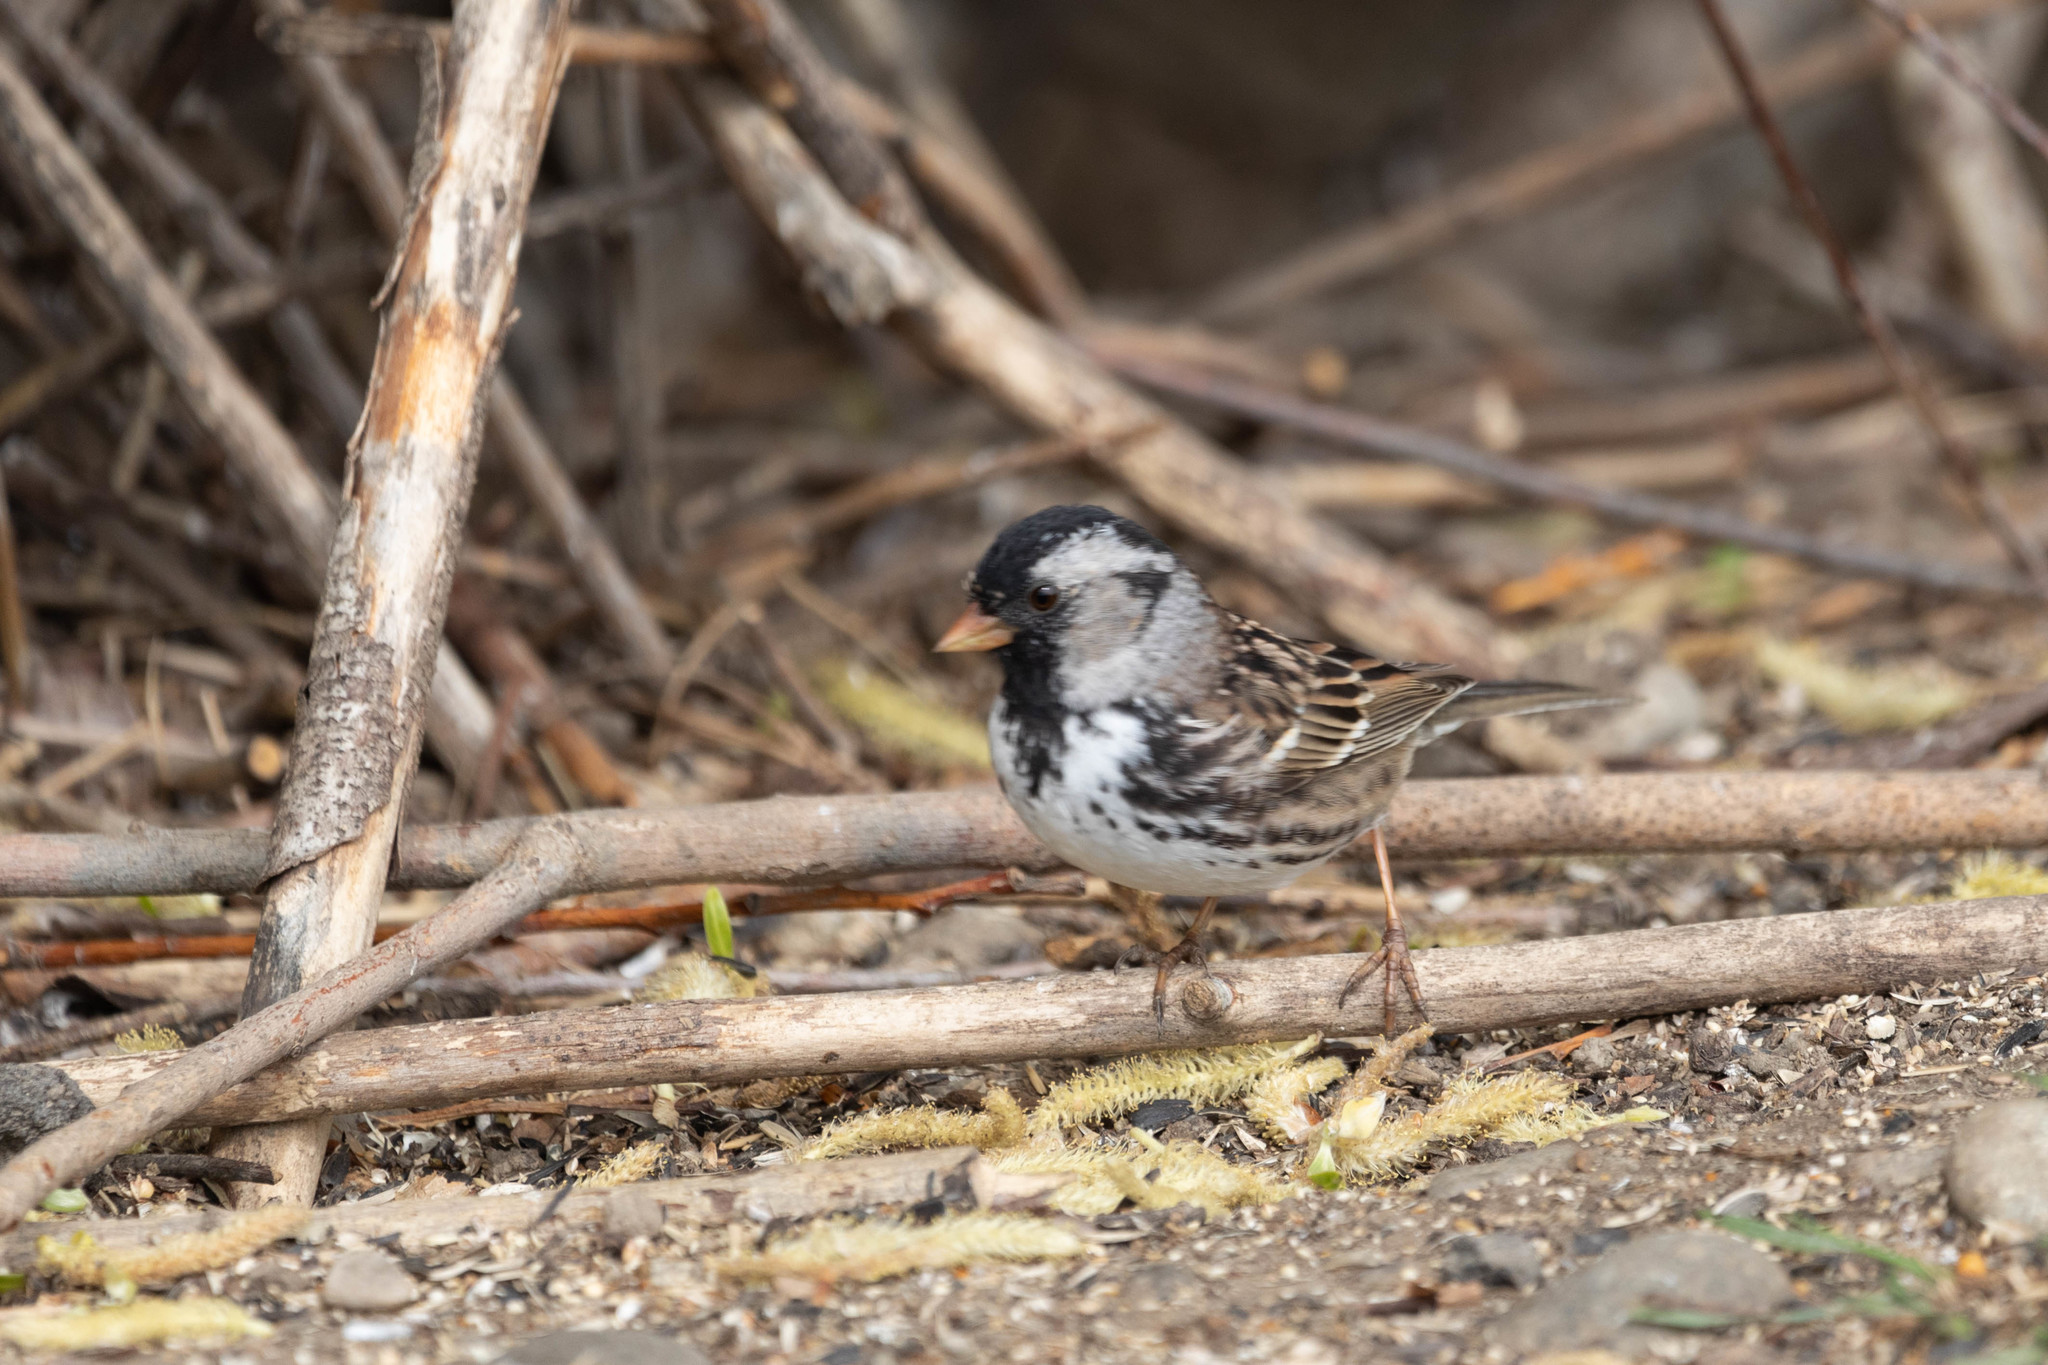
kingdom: Animalia
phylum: Chordata
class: Aves
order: Passeriformes
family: Passerellidae
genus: Zonotrichia
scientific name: Zonotrichia querula
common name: Harris's sparrow
